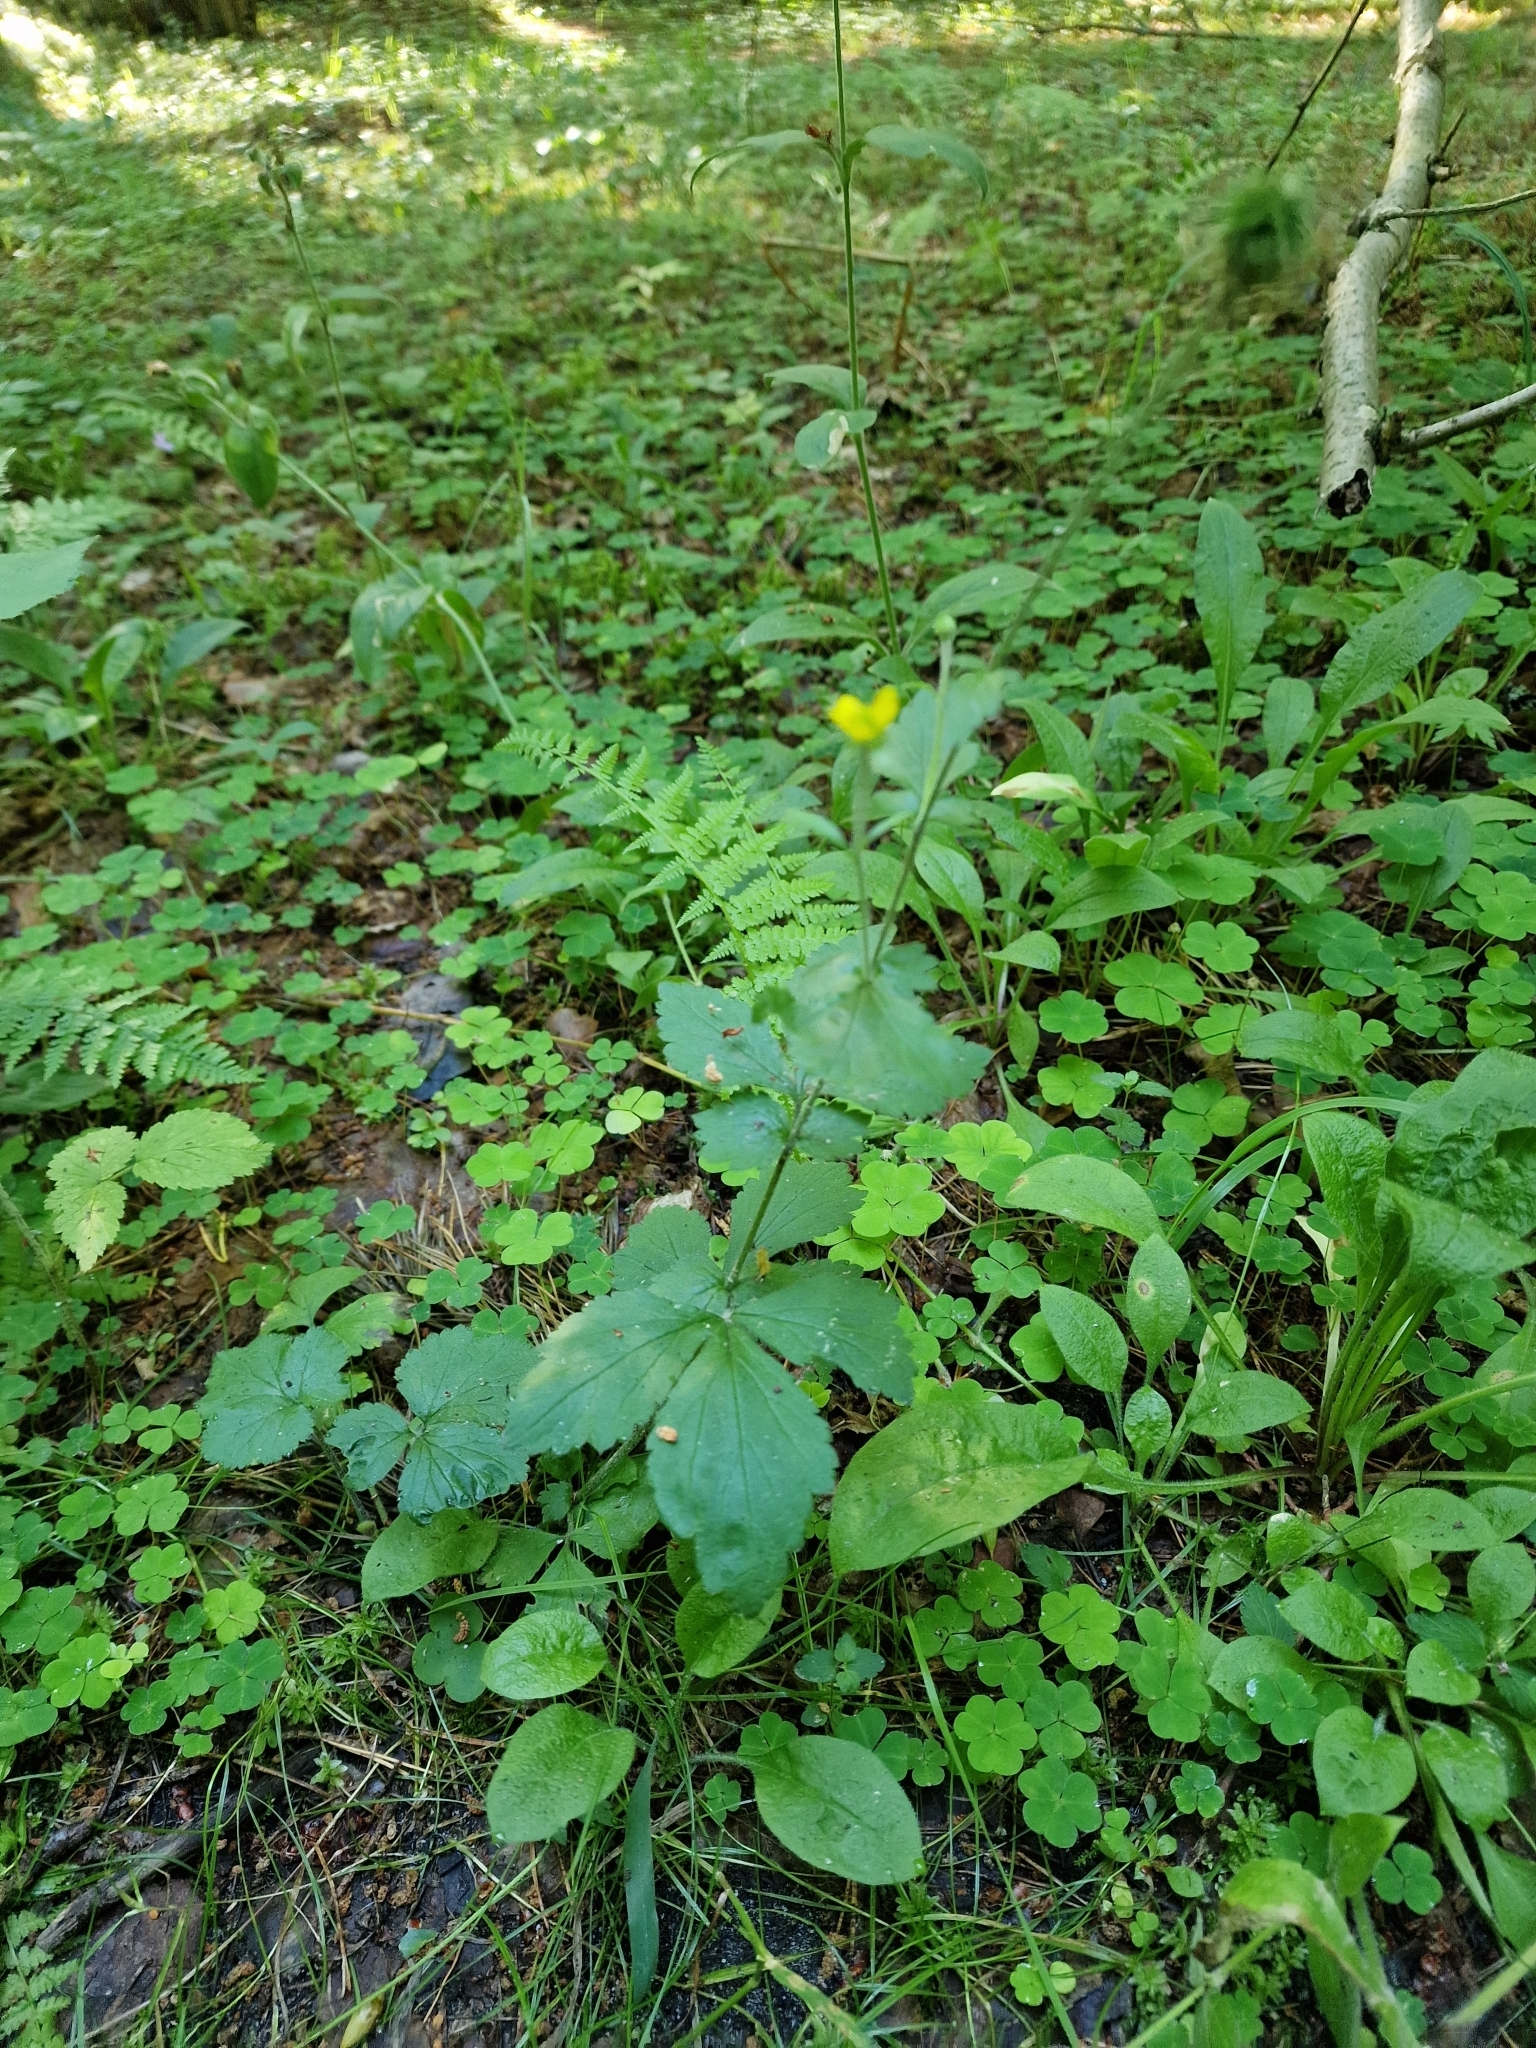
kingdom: Plantae
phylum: Tracheophyta
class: Magnoliopsida
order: Rosales
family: Rosaceae
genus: Geum
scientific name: Geum urbanum
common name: Wood avens
